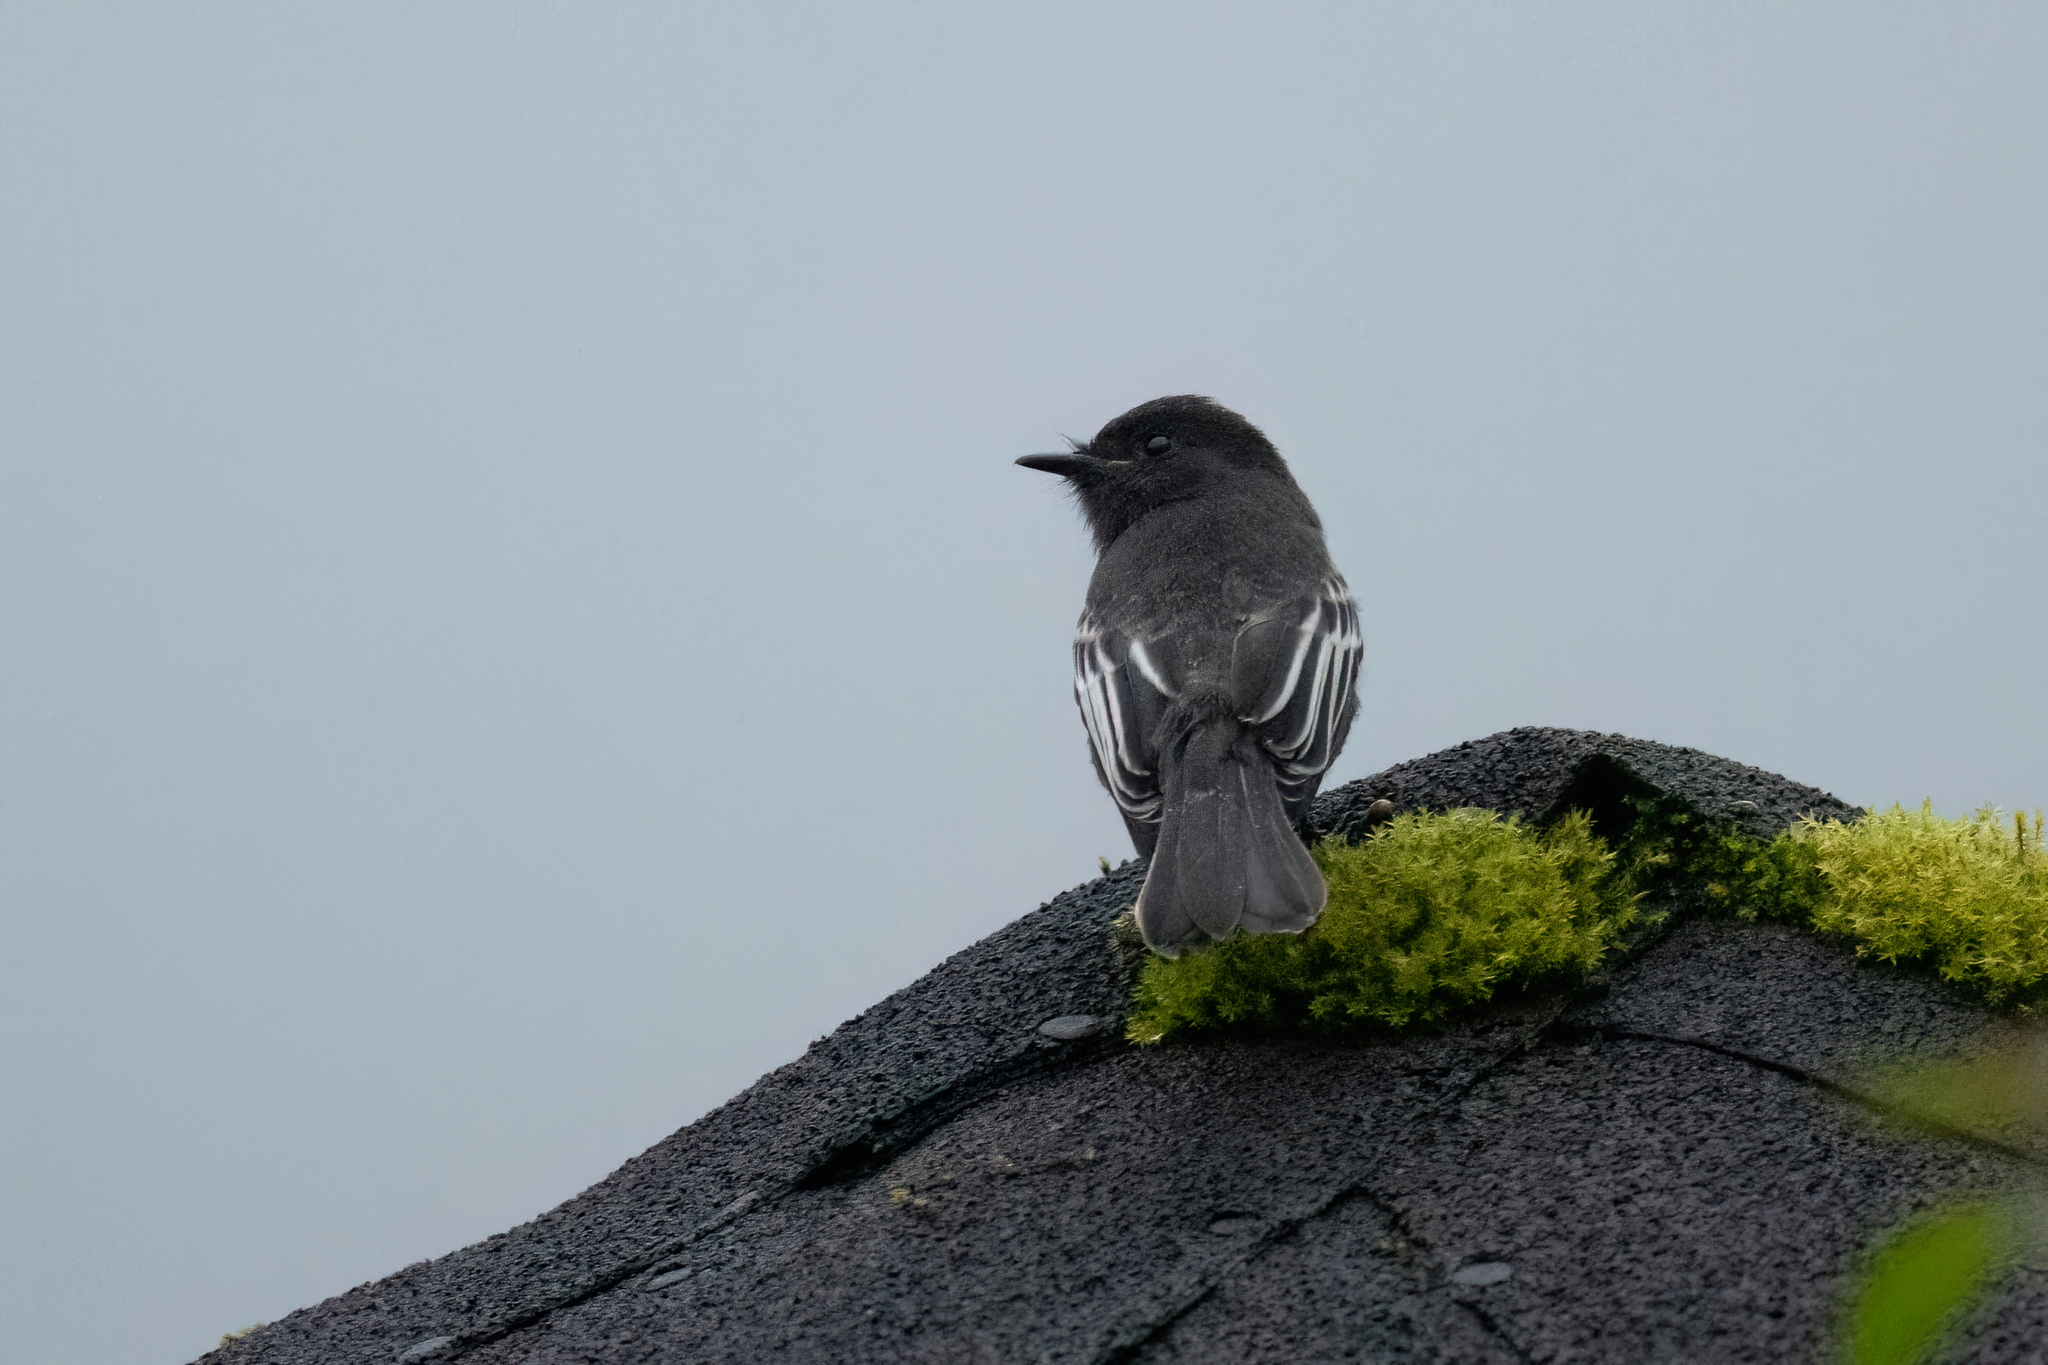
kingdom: Animalia
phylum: Chordata
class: Aves
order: Passeriformes
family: Tyrannidae
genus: Sayornis
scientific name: Sayornis nigricans
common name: Black phoebe
